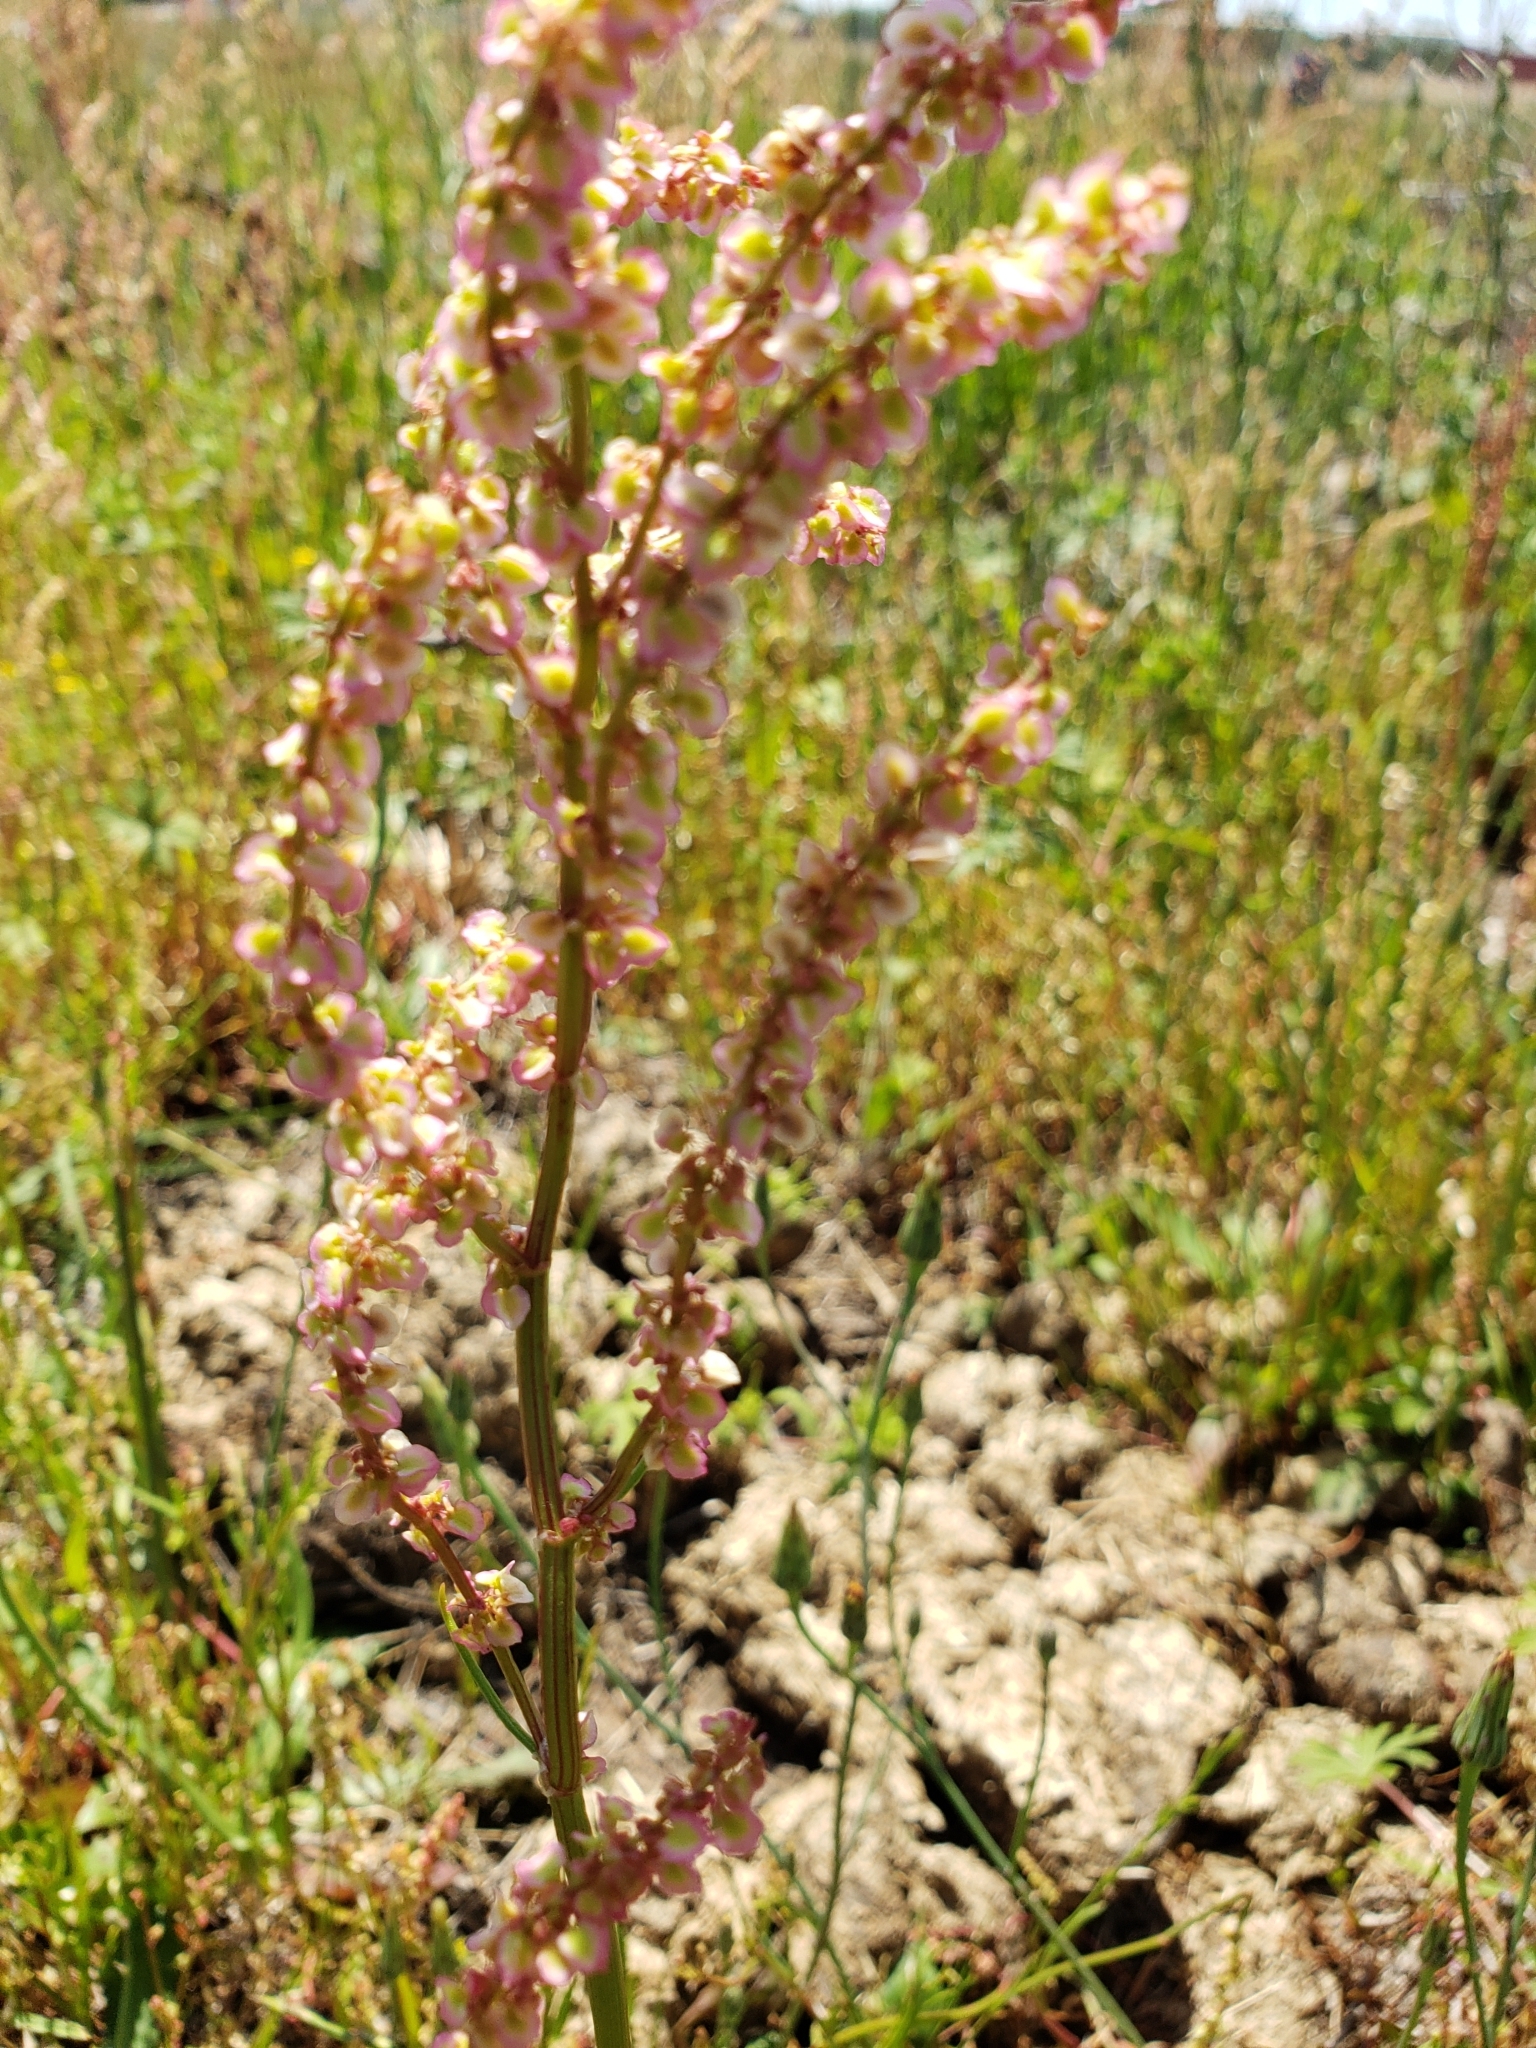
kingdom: Plantae
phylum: Tracheophyta
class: Magnoliopsida
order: Caryophyllales
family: Polygonaceae
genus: Rumex
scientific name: Rumex hastatulus
